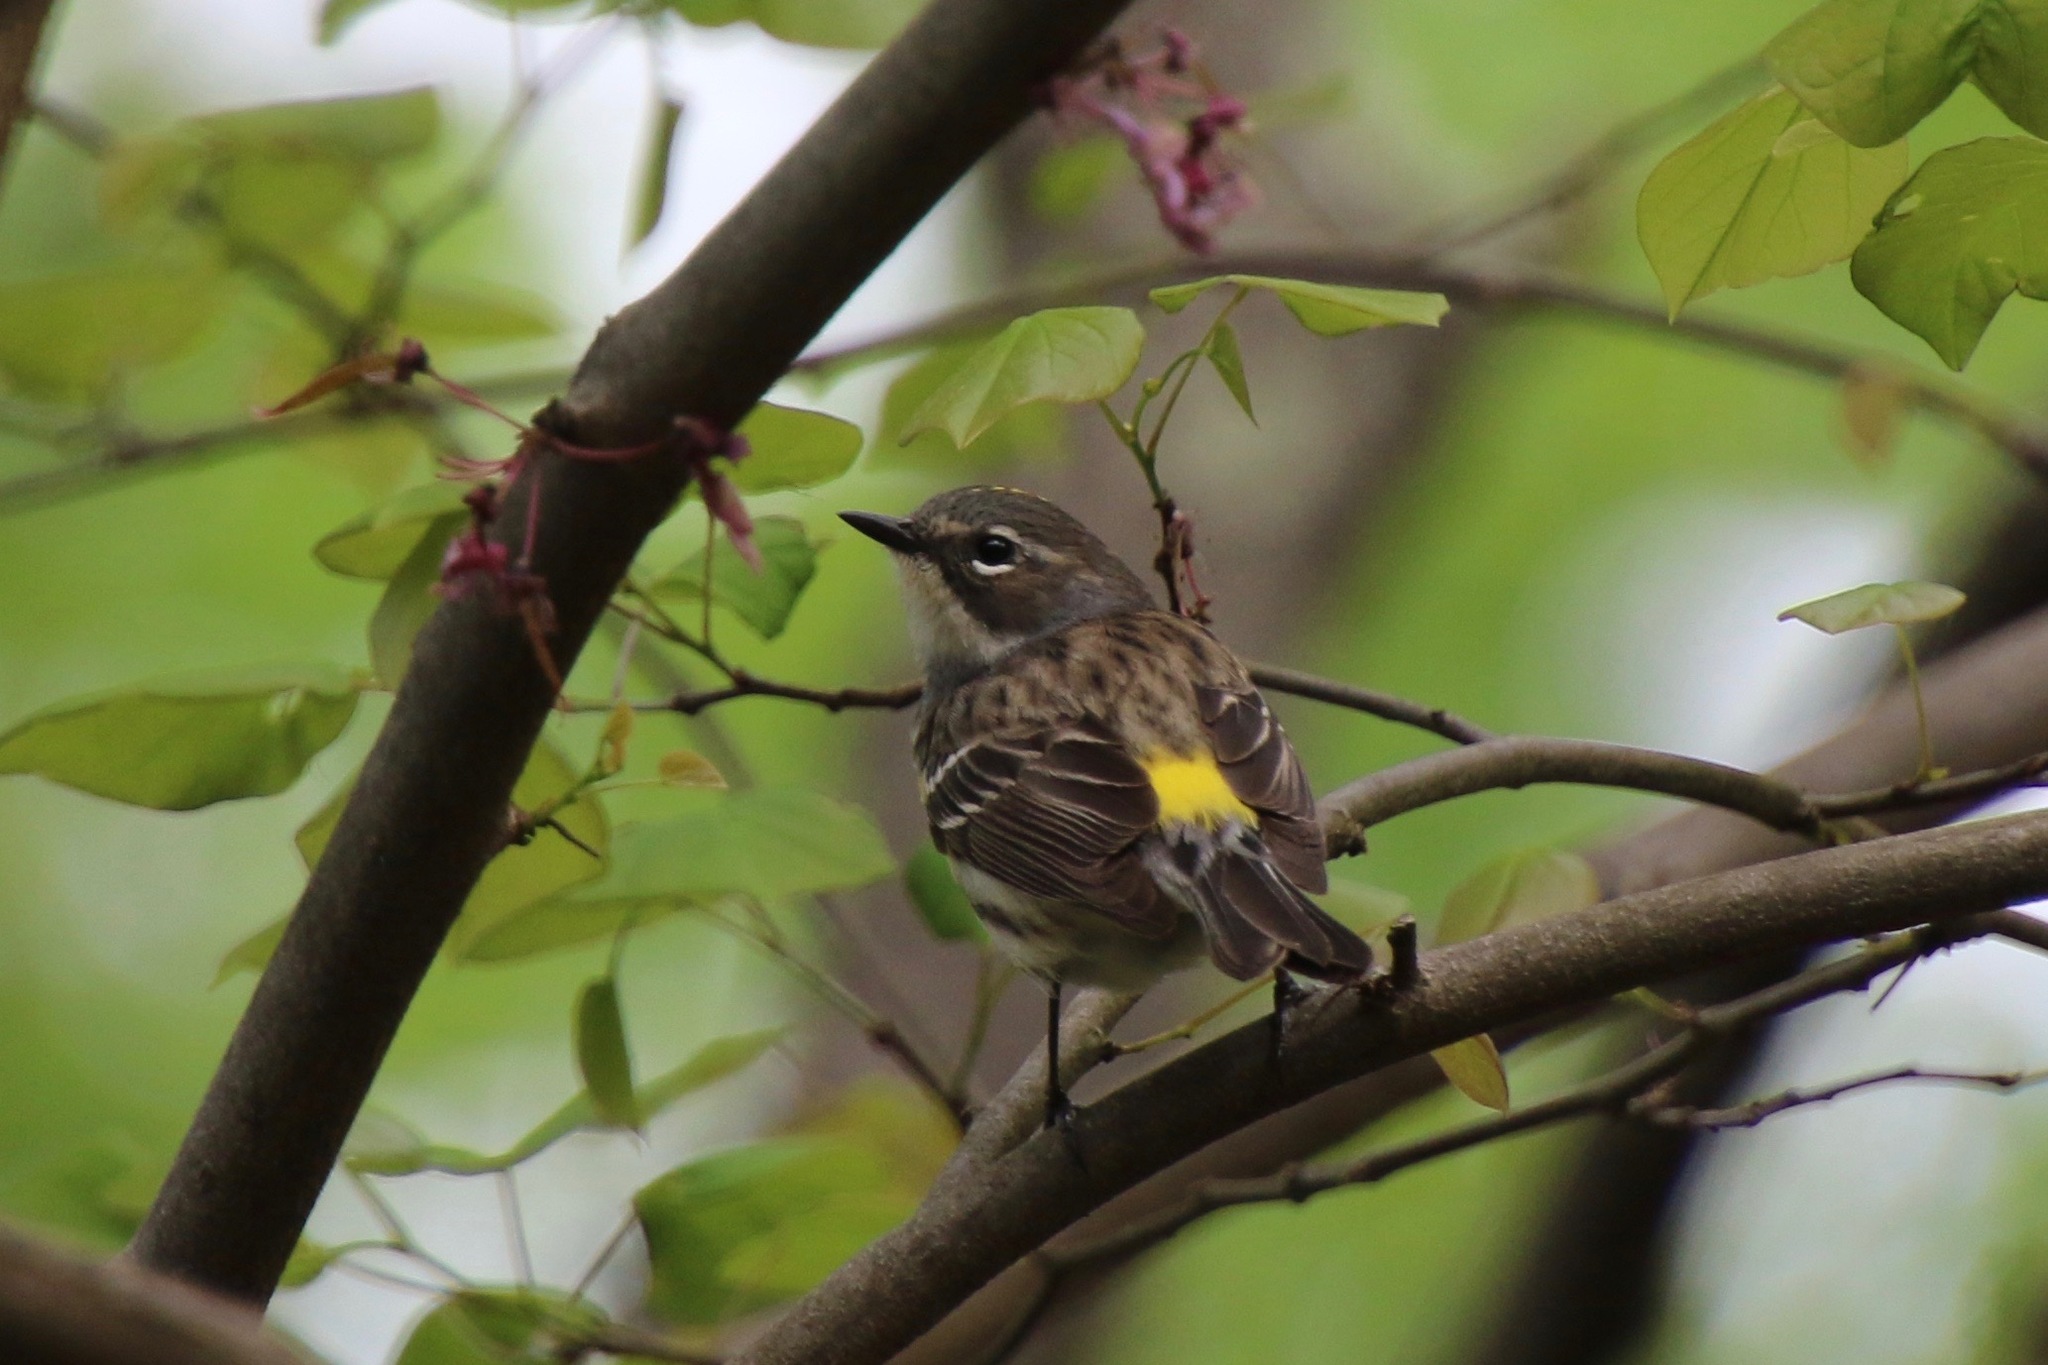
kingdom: Animalia
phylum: Chordata
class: Aves
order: Passeriformes
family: Parulidae
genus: Setophaga
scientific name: Setophaga coronata
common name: Myrtle warbler
